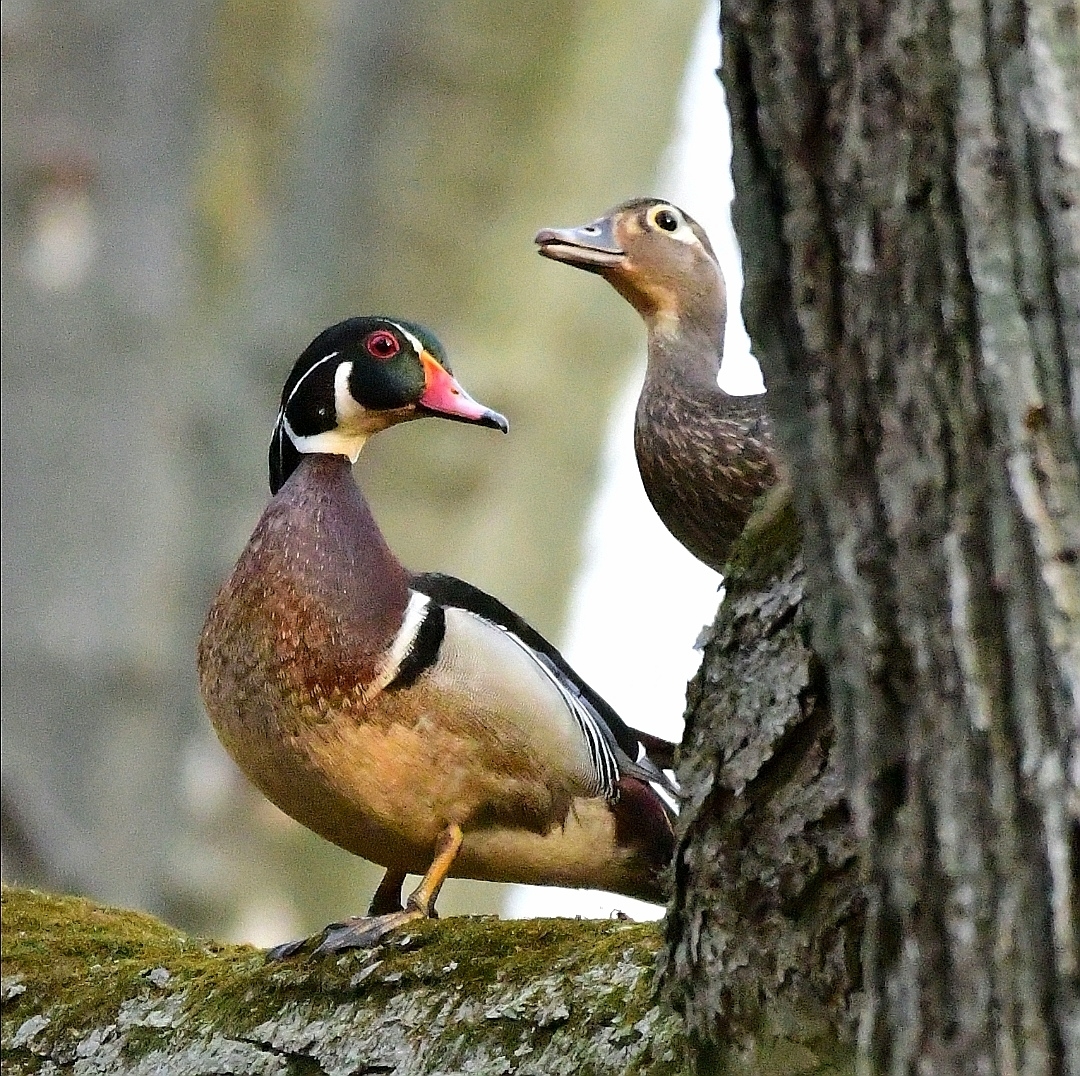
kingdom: Animalia
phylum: Chordata
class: Aves
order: Anseriformes
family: Anatidae
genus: Aix
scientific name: Aix sponsa
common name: Wood duck
